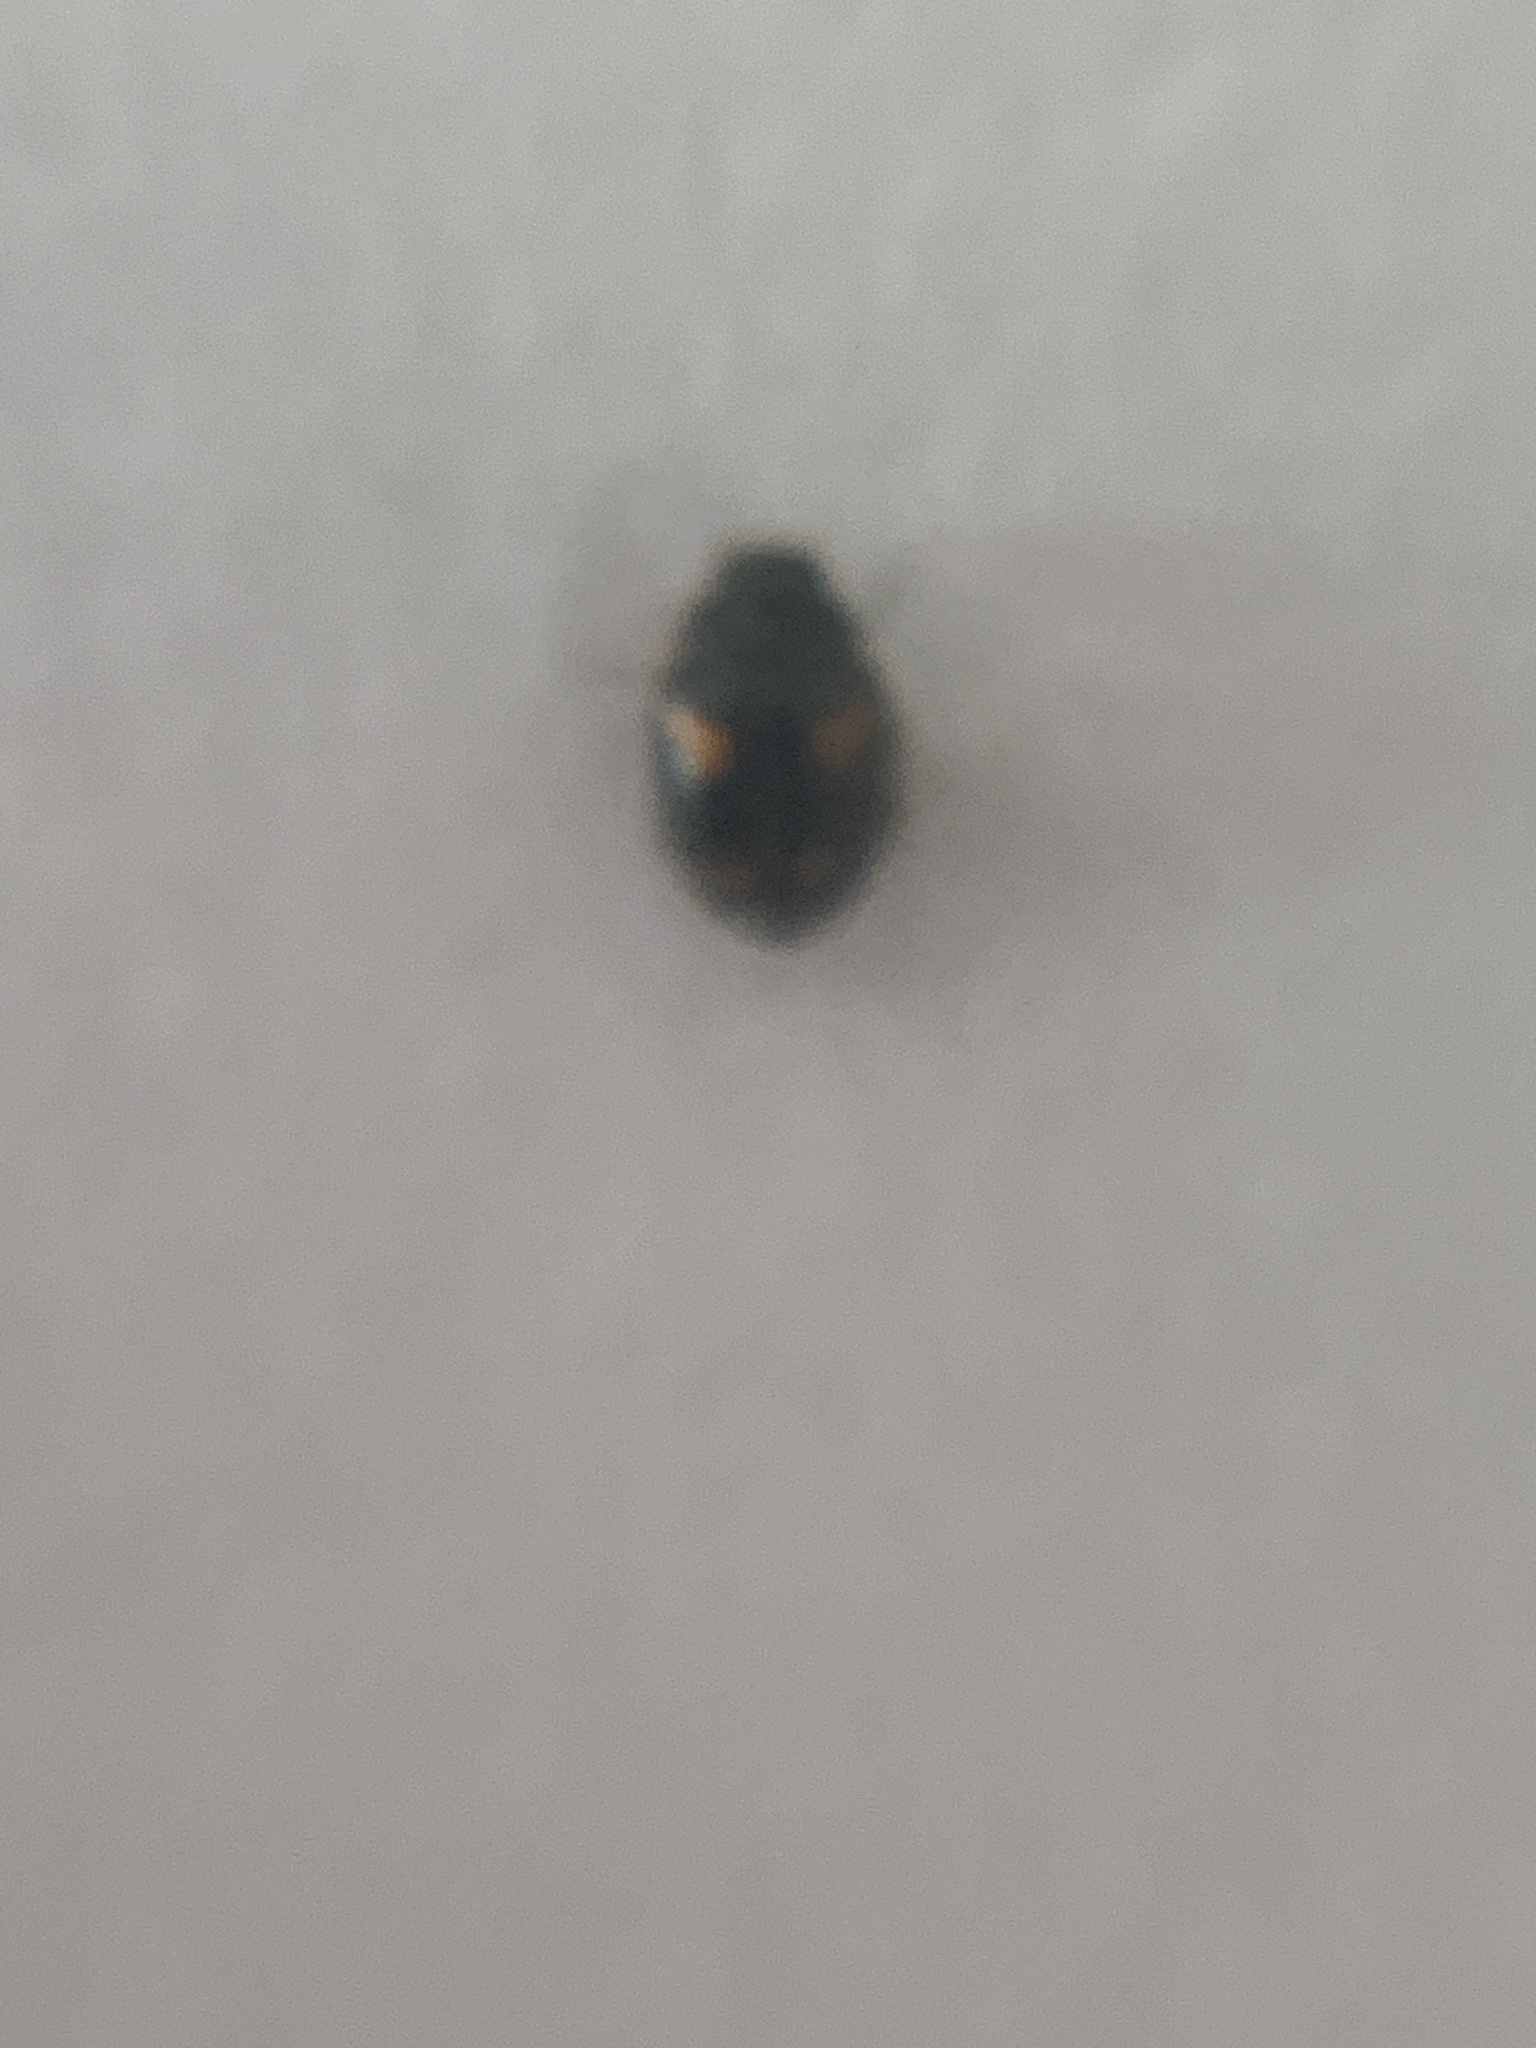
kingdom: Animalia
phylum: Arthropoda
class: Insecta
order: Coleoptera
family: Coccinellidae
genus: Nephus
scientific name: Nephus quadrimaculatus
